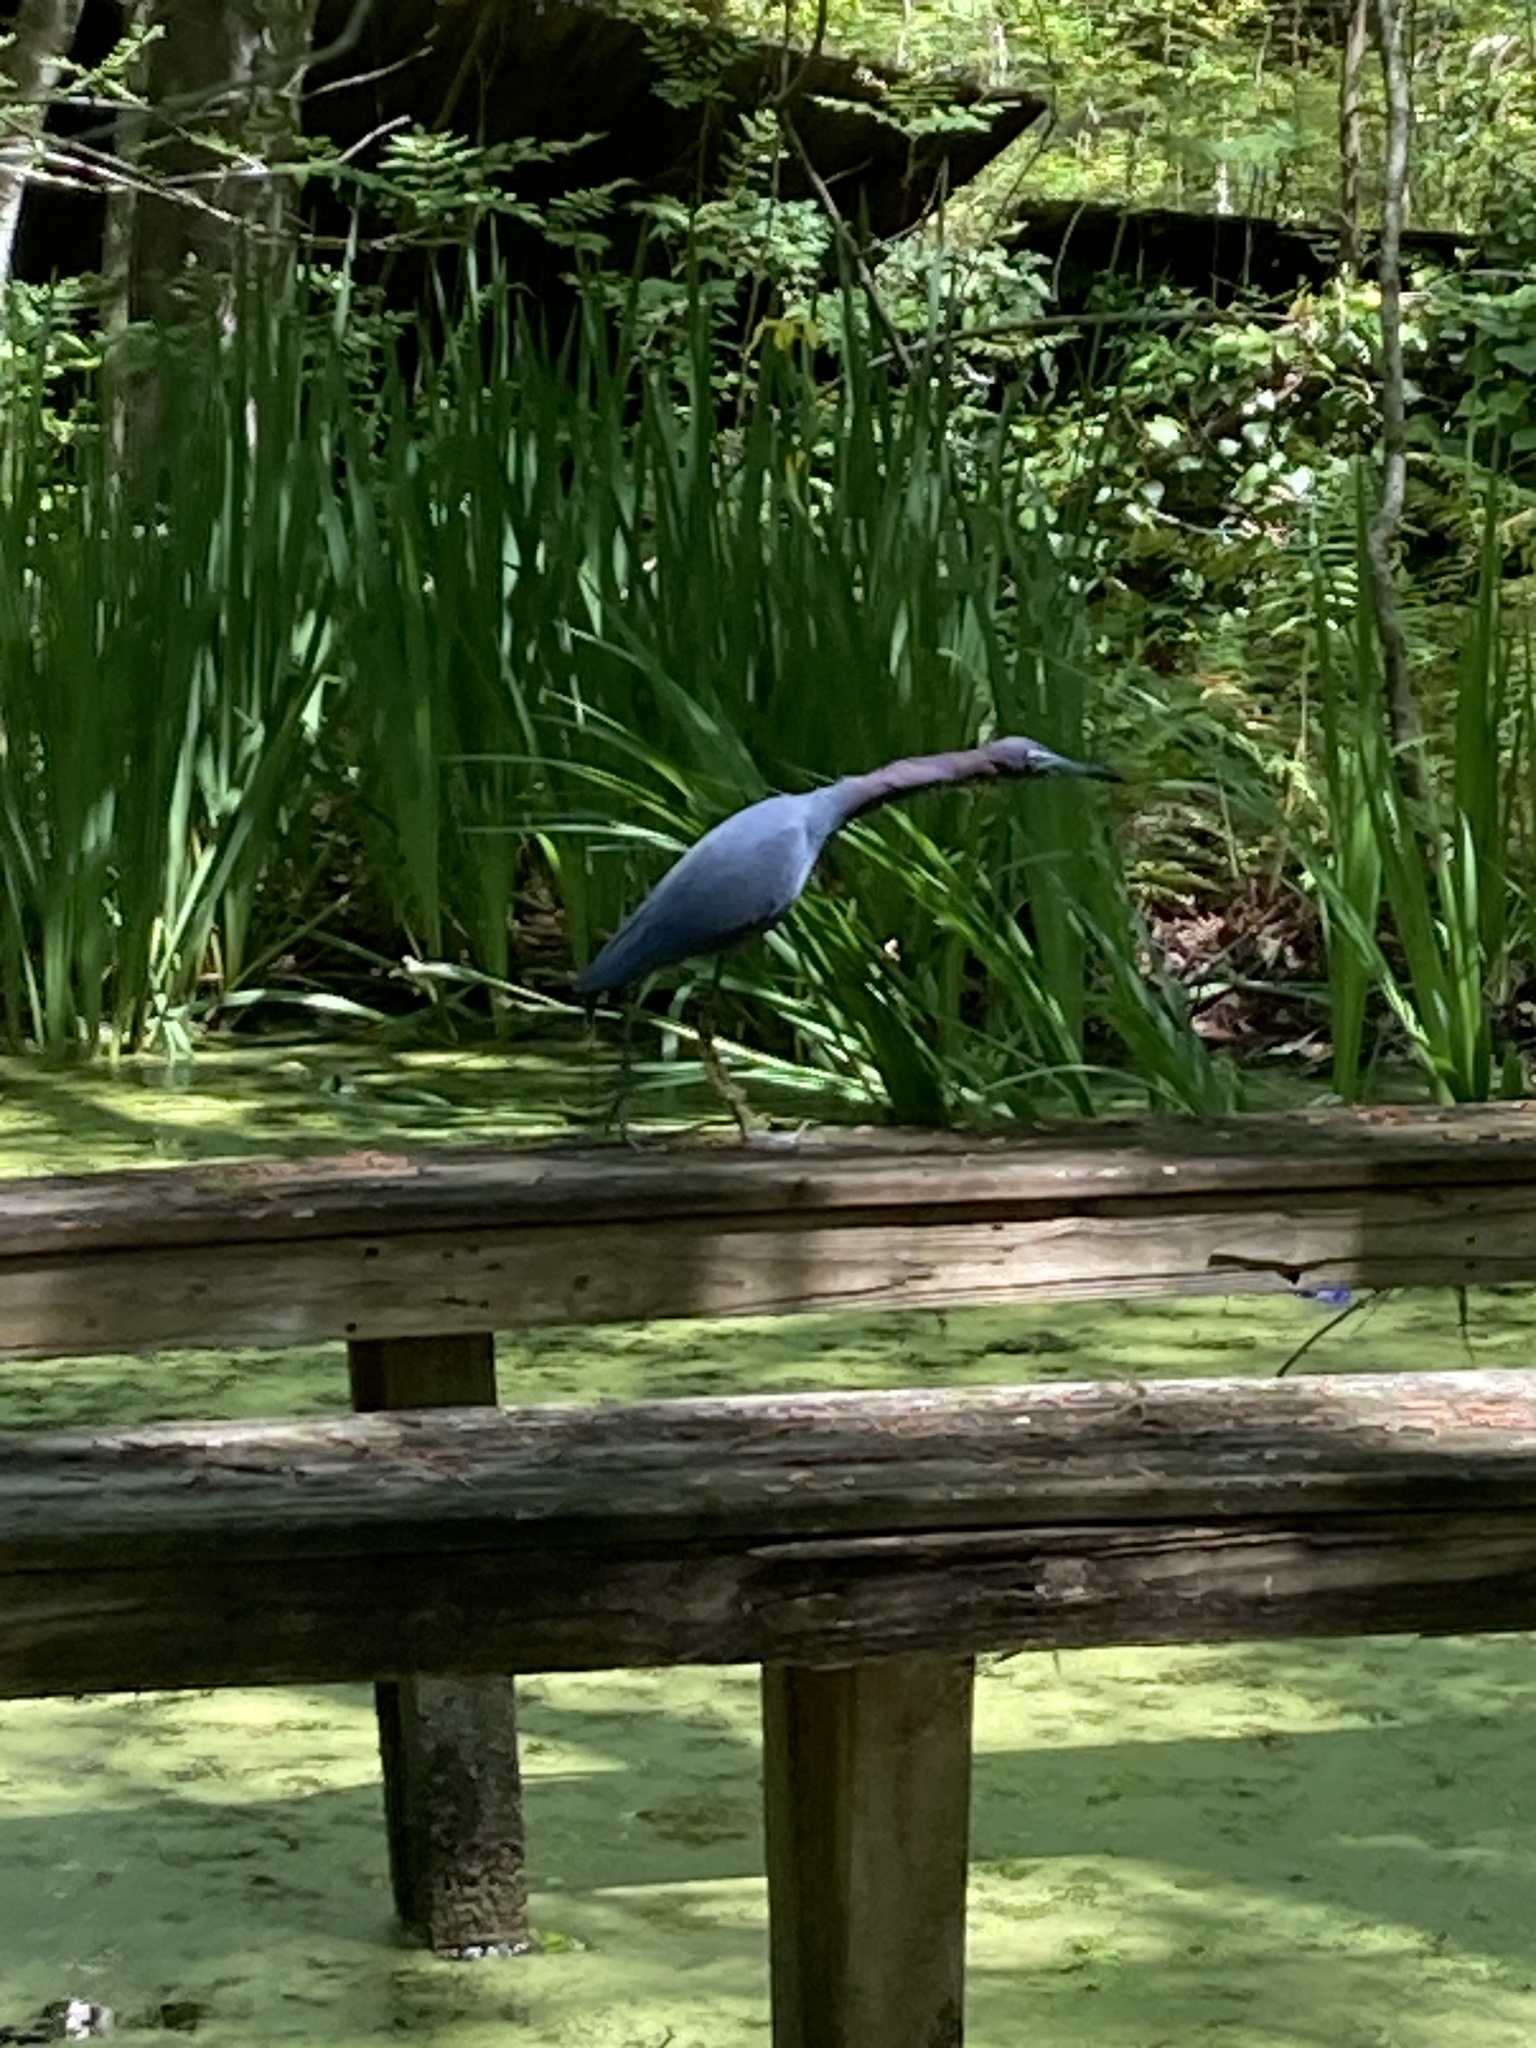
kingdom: Animalia
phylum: Chordata
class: Aves
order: Pelecaniformes
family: Ardeidae
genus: Egretta
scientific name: Egretta caerulea
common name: Little blue heron
